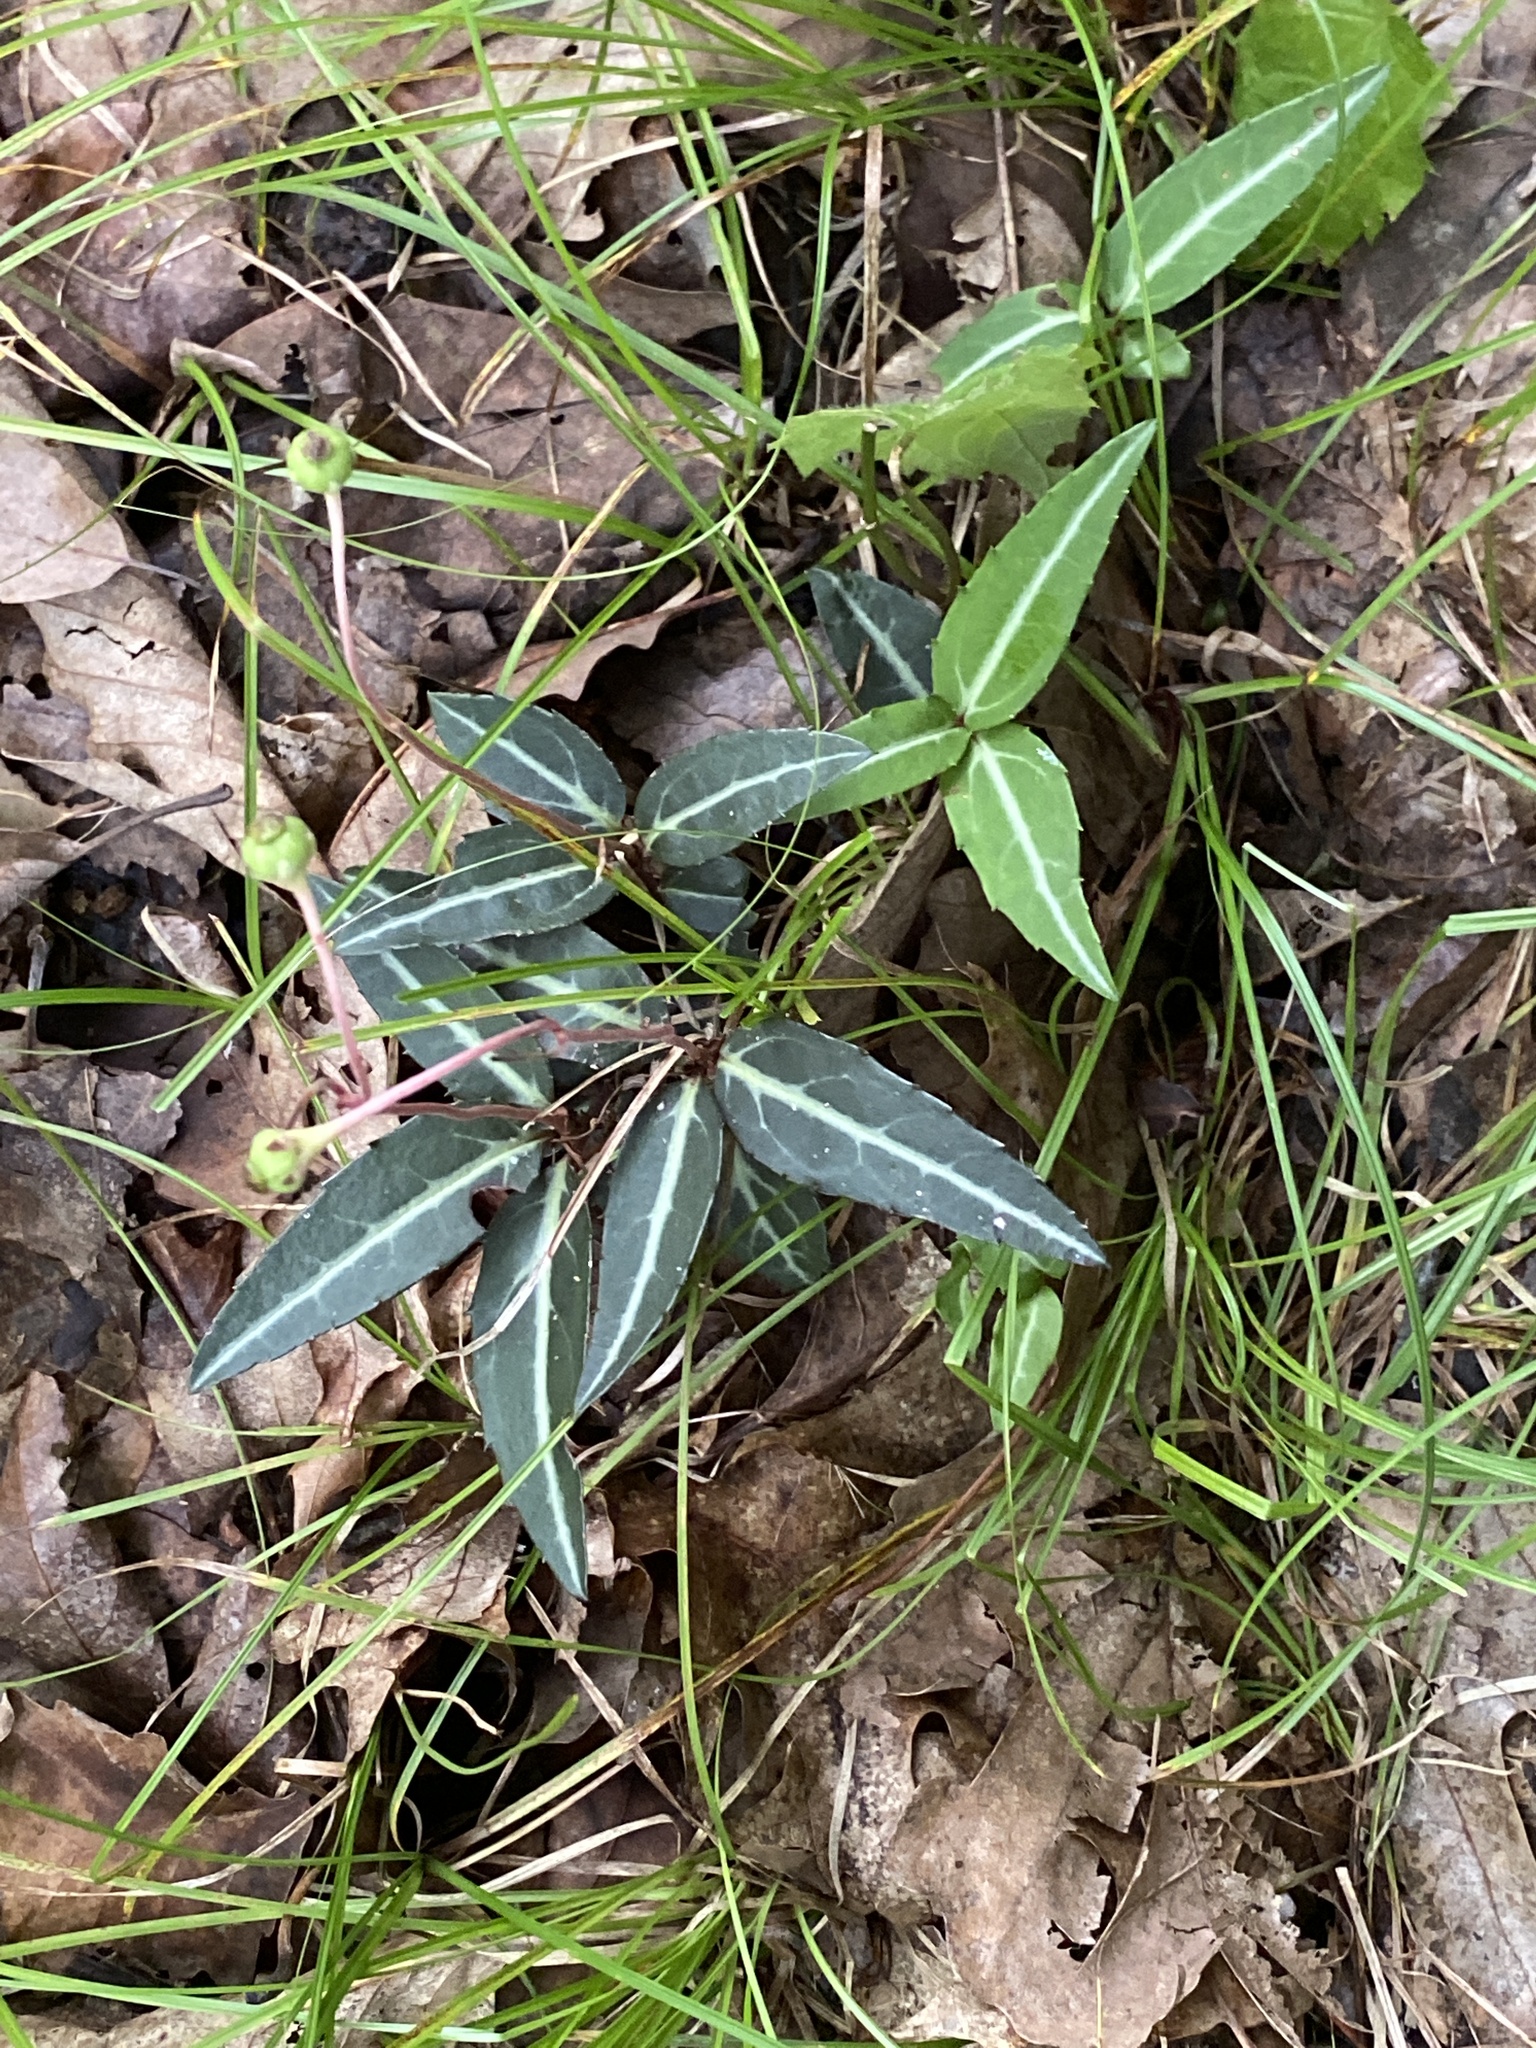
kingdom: Plantae
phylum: Tracheophyta
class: Magnoliopsida
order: Ericales
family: Ericaceae
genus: Chimaphila
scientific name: Chimaphila maculata
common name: Spotted pipsissewa
